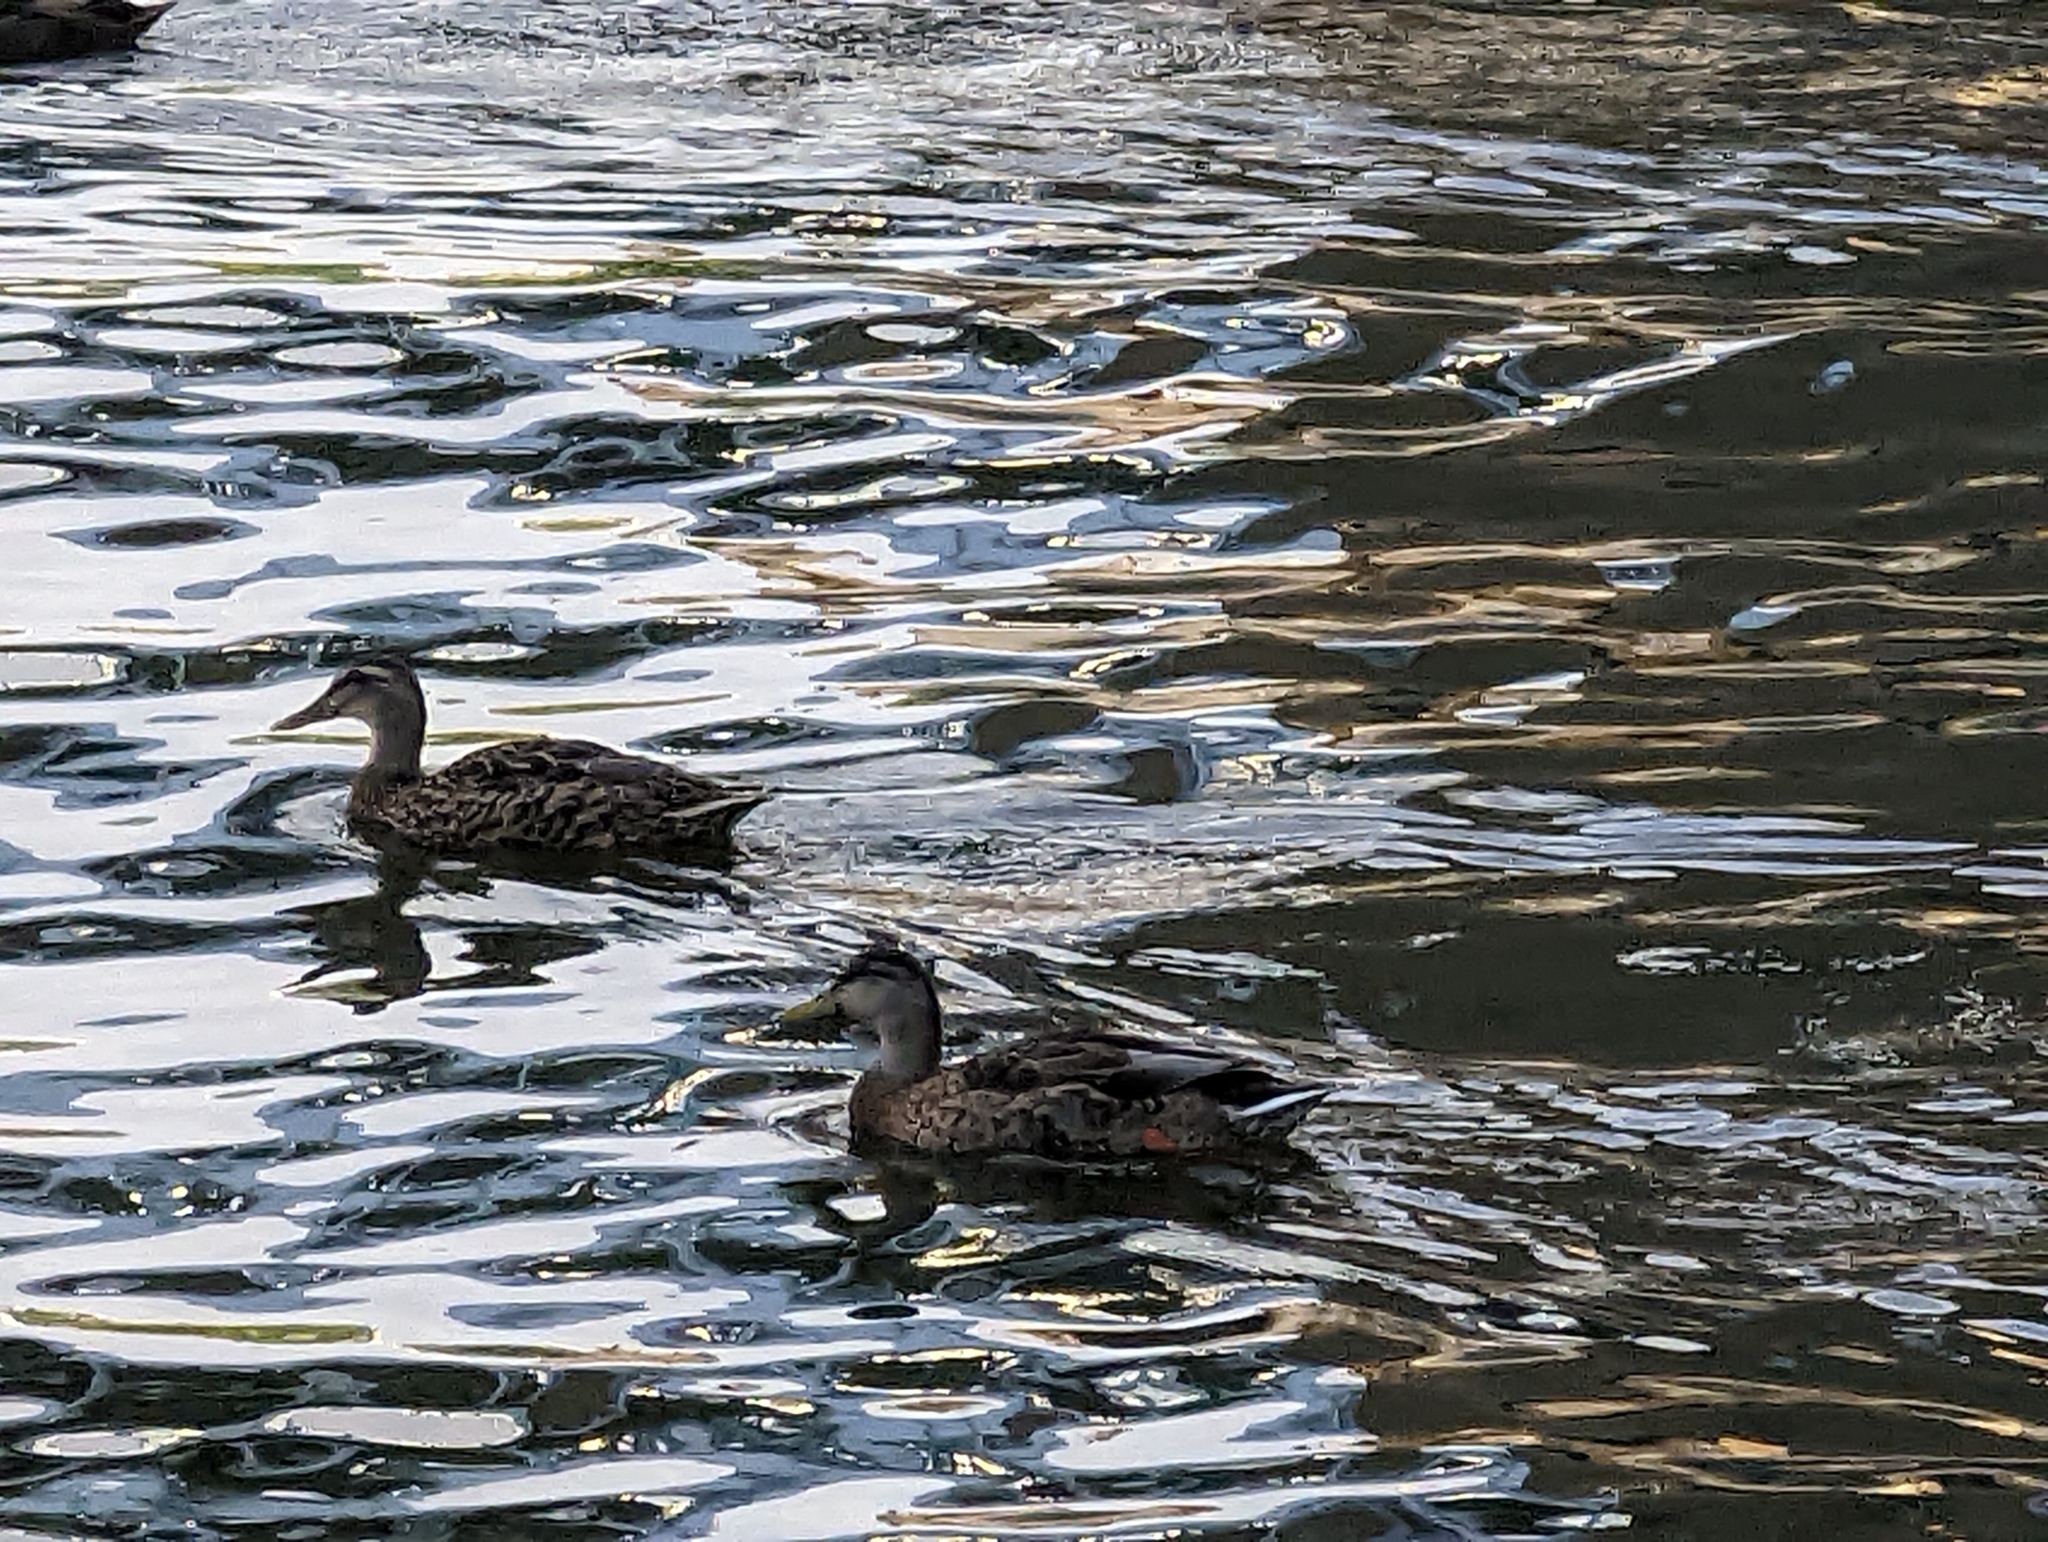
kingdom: Animalia
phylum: Chordata
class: Aves
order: Anseriformes
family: Anatidae
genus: Anas
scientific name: Anas platyrhynchos
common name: Mallard
